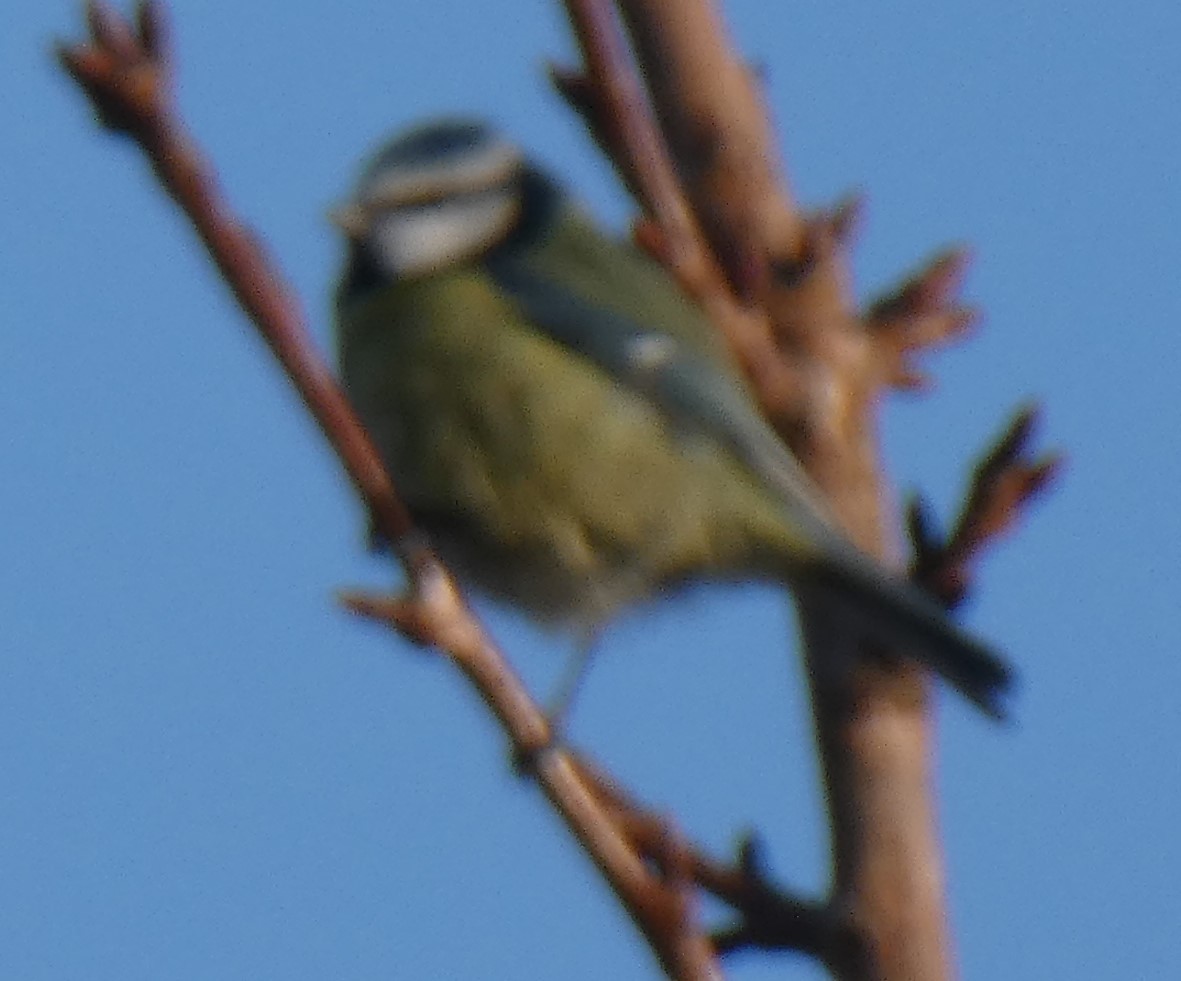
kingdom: Animalia
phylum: Chordata
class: Aves
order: Passeriformes
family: Paridae
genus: Cyanistes
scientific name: Cyanistes caeruleus
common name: Eurasian blue tit
